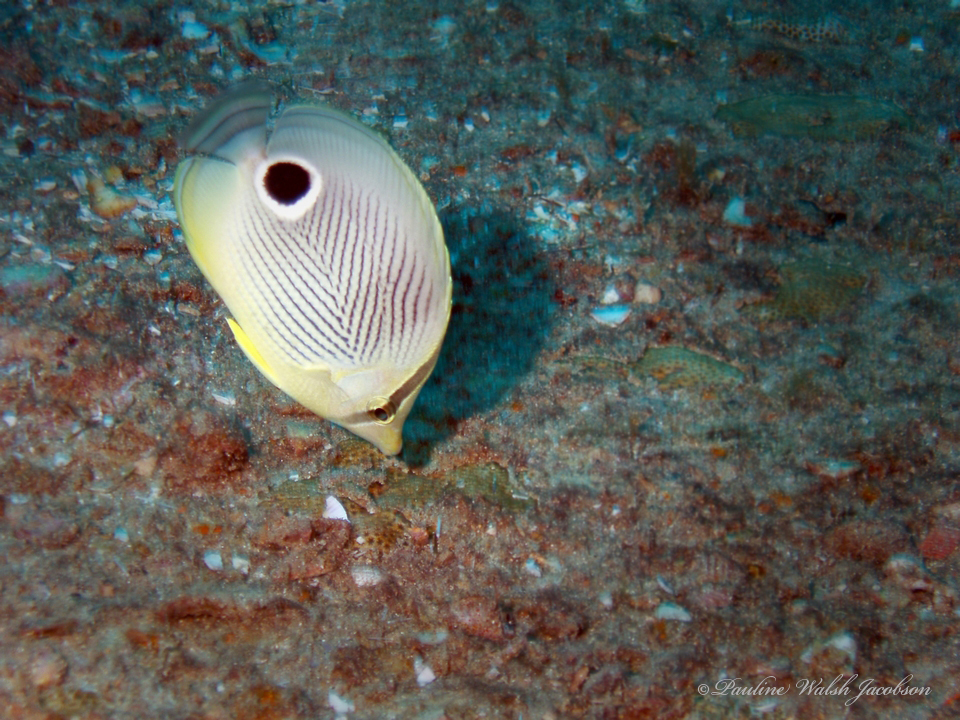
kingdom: Animalia
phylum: Chordata
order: Perciformes
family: Chaetodontidae
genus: Chaetodon
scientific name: Chaetodon capistratus
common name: Kete
